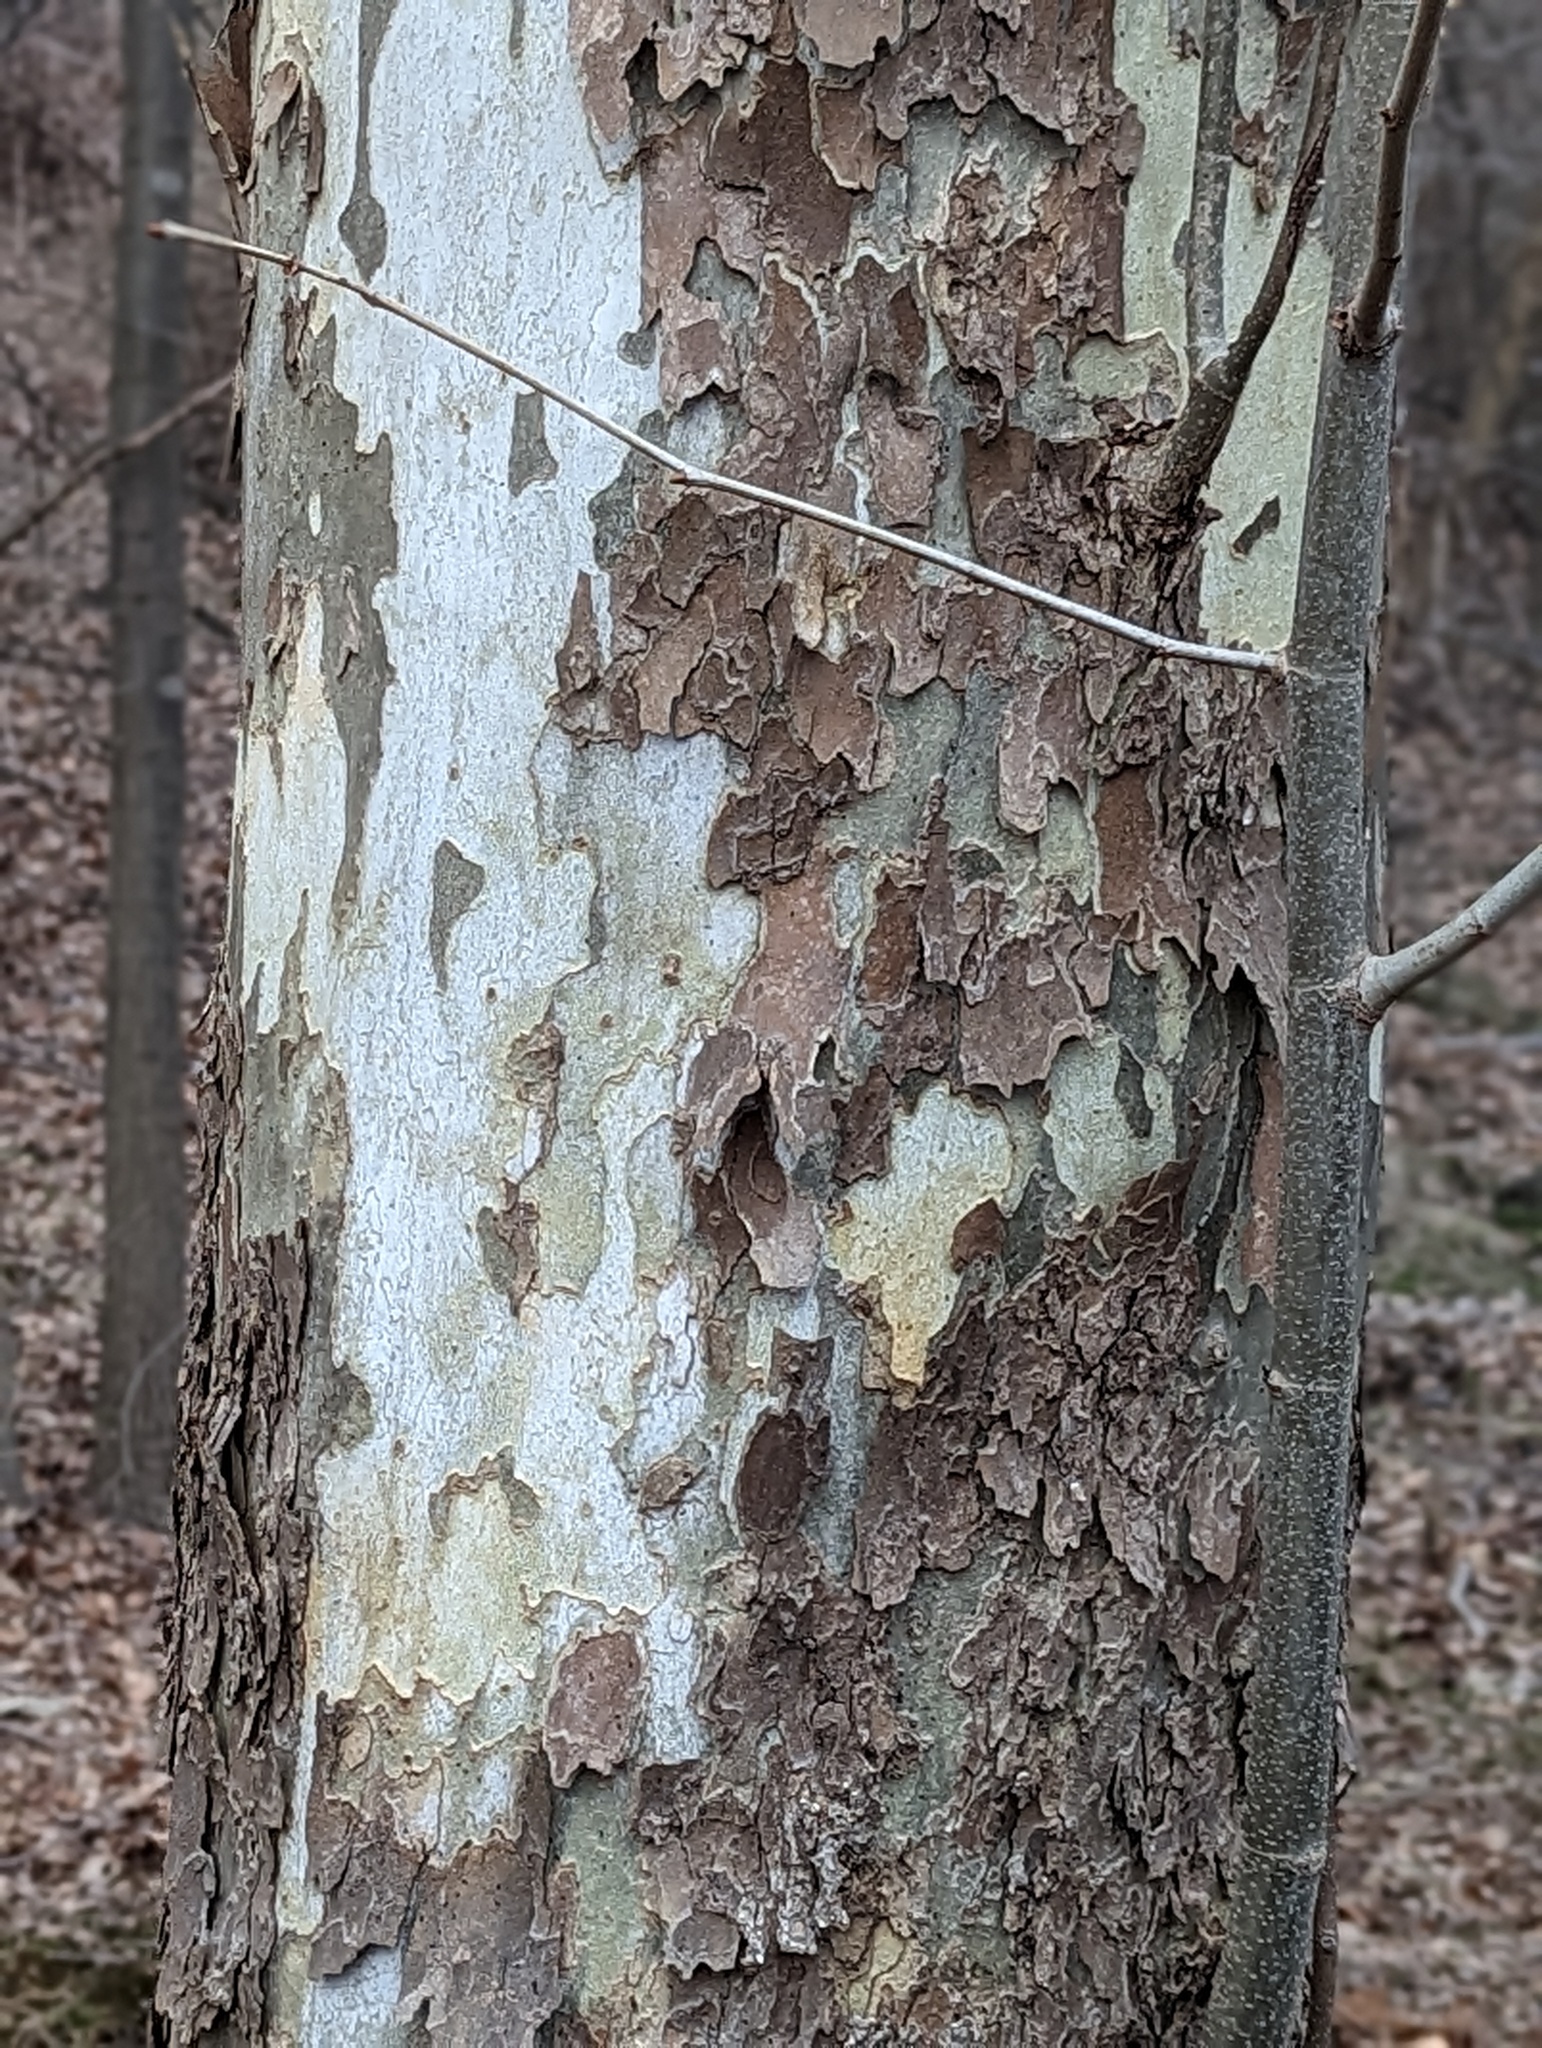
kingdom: Plantae
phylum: Tracheophyta
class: Magnoliopsida
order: Proteales
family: Platanaceae
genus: Platanus
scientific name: Platanus occidentalis
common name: American sycamore
